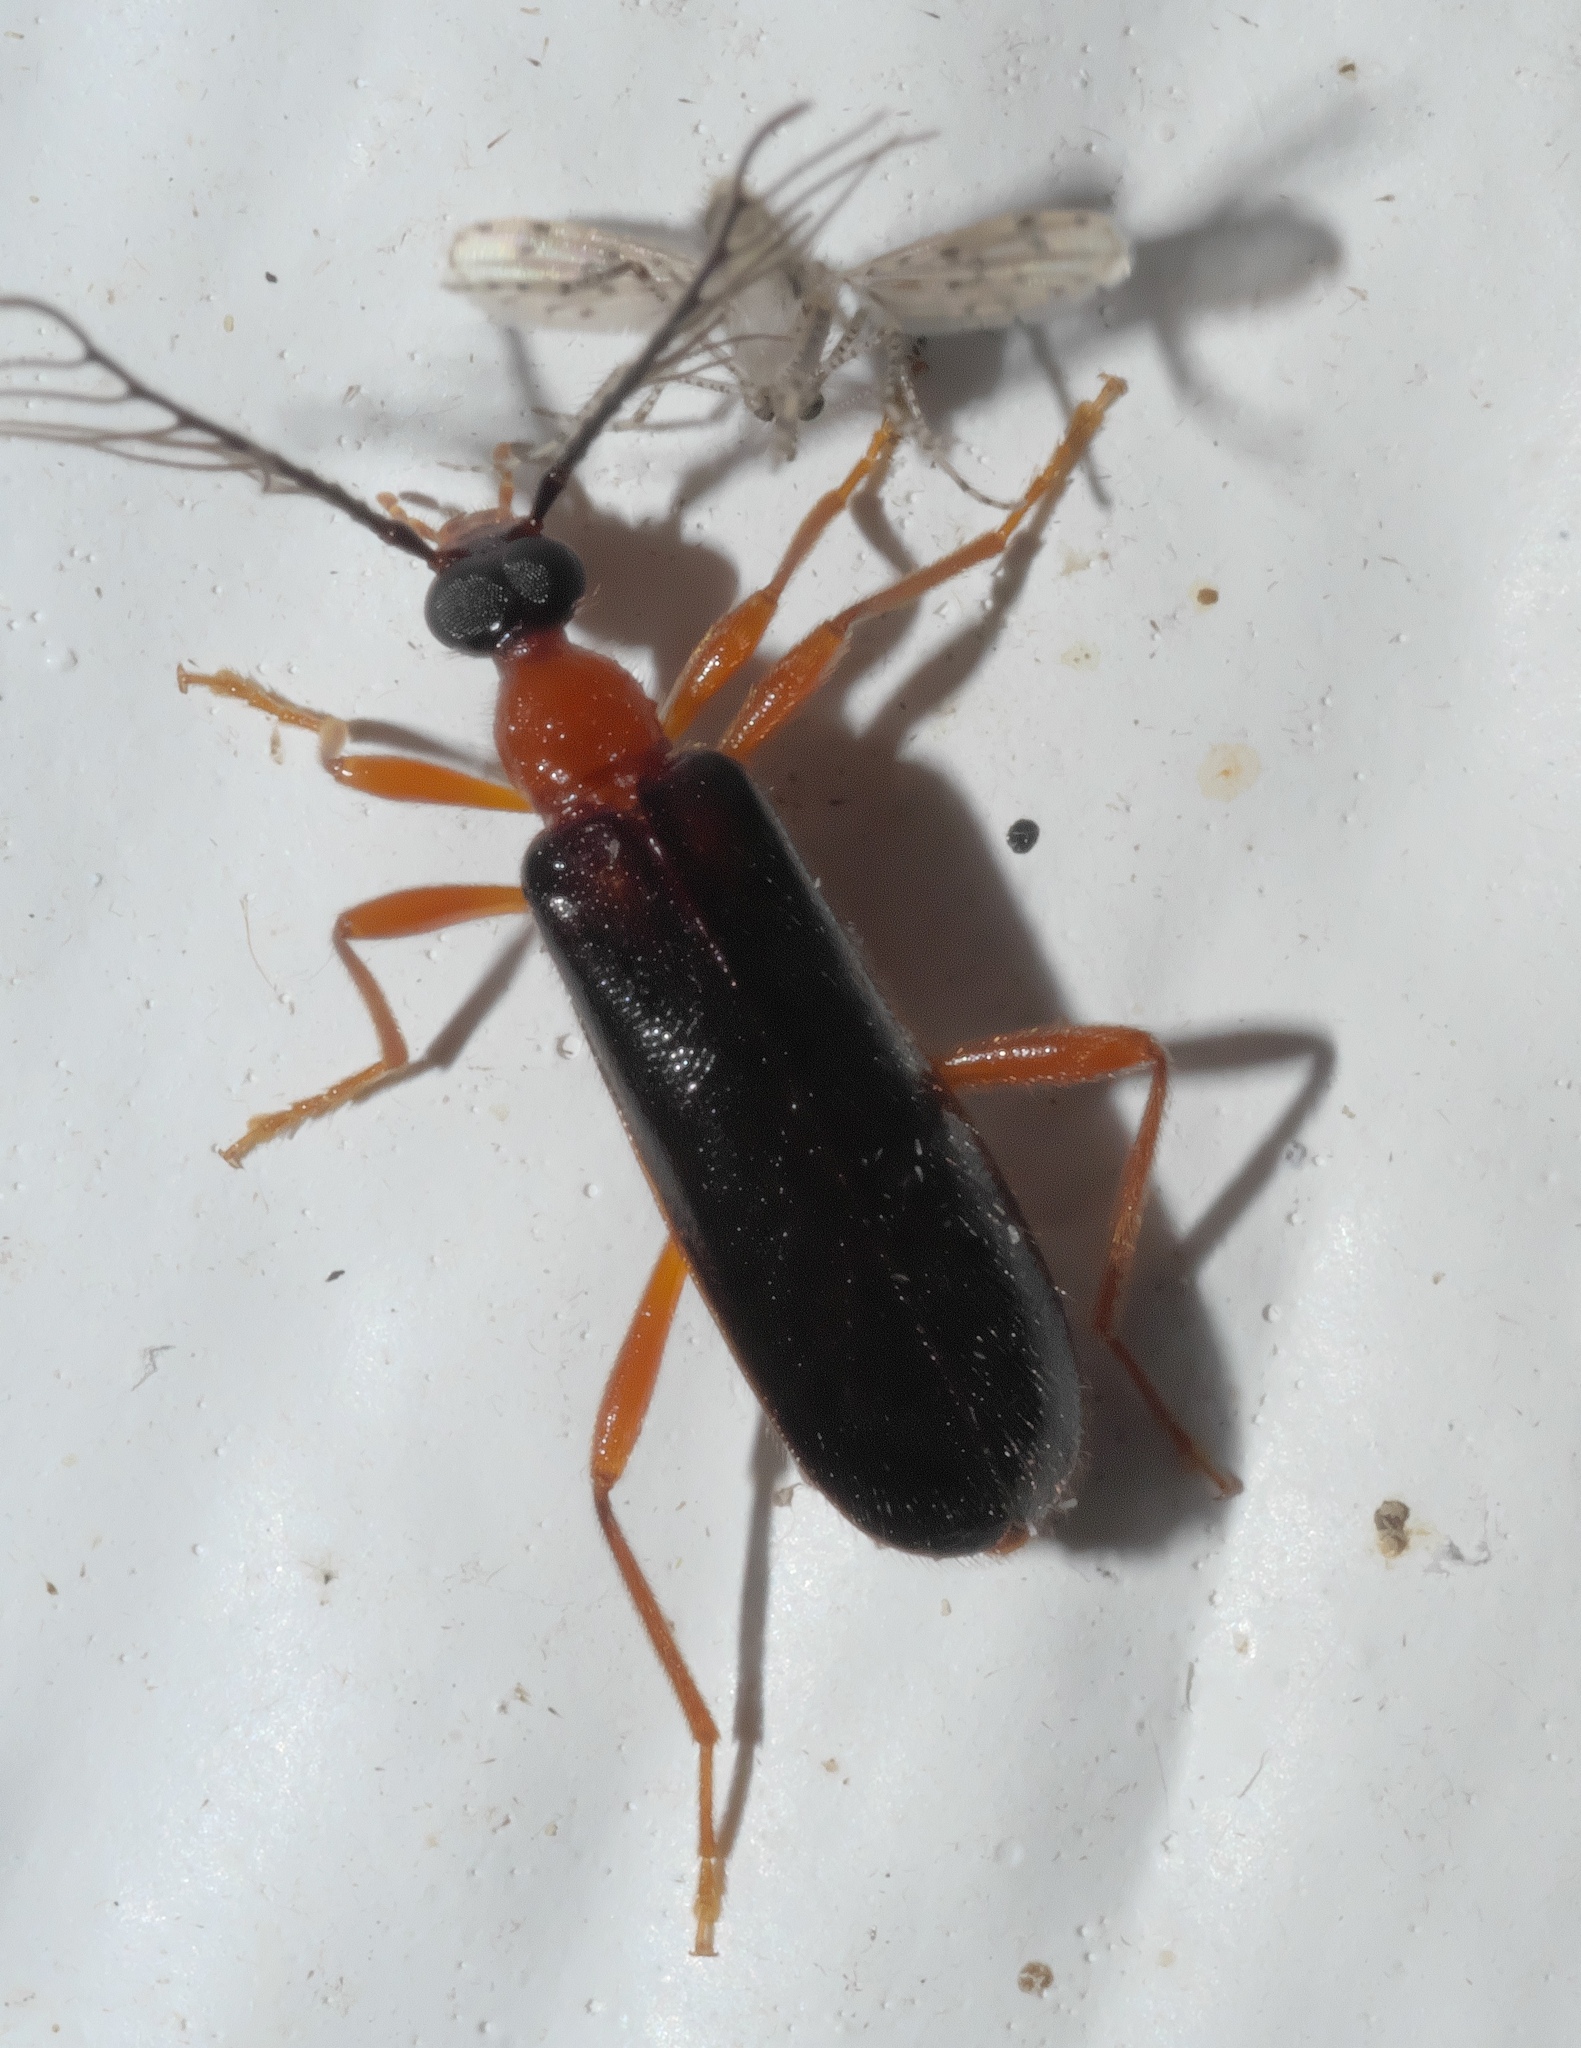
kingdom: Animalia
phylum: Arthropoda
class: Insecta
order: Coleoptera
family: Pyrochroidae
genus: Dendroides
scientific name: Dendroides canadensis
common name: Canada fire-colored beetle
